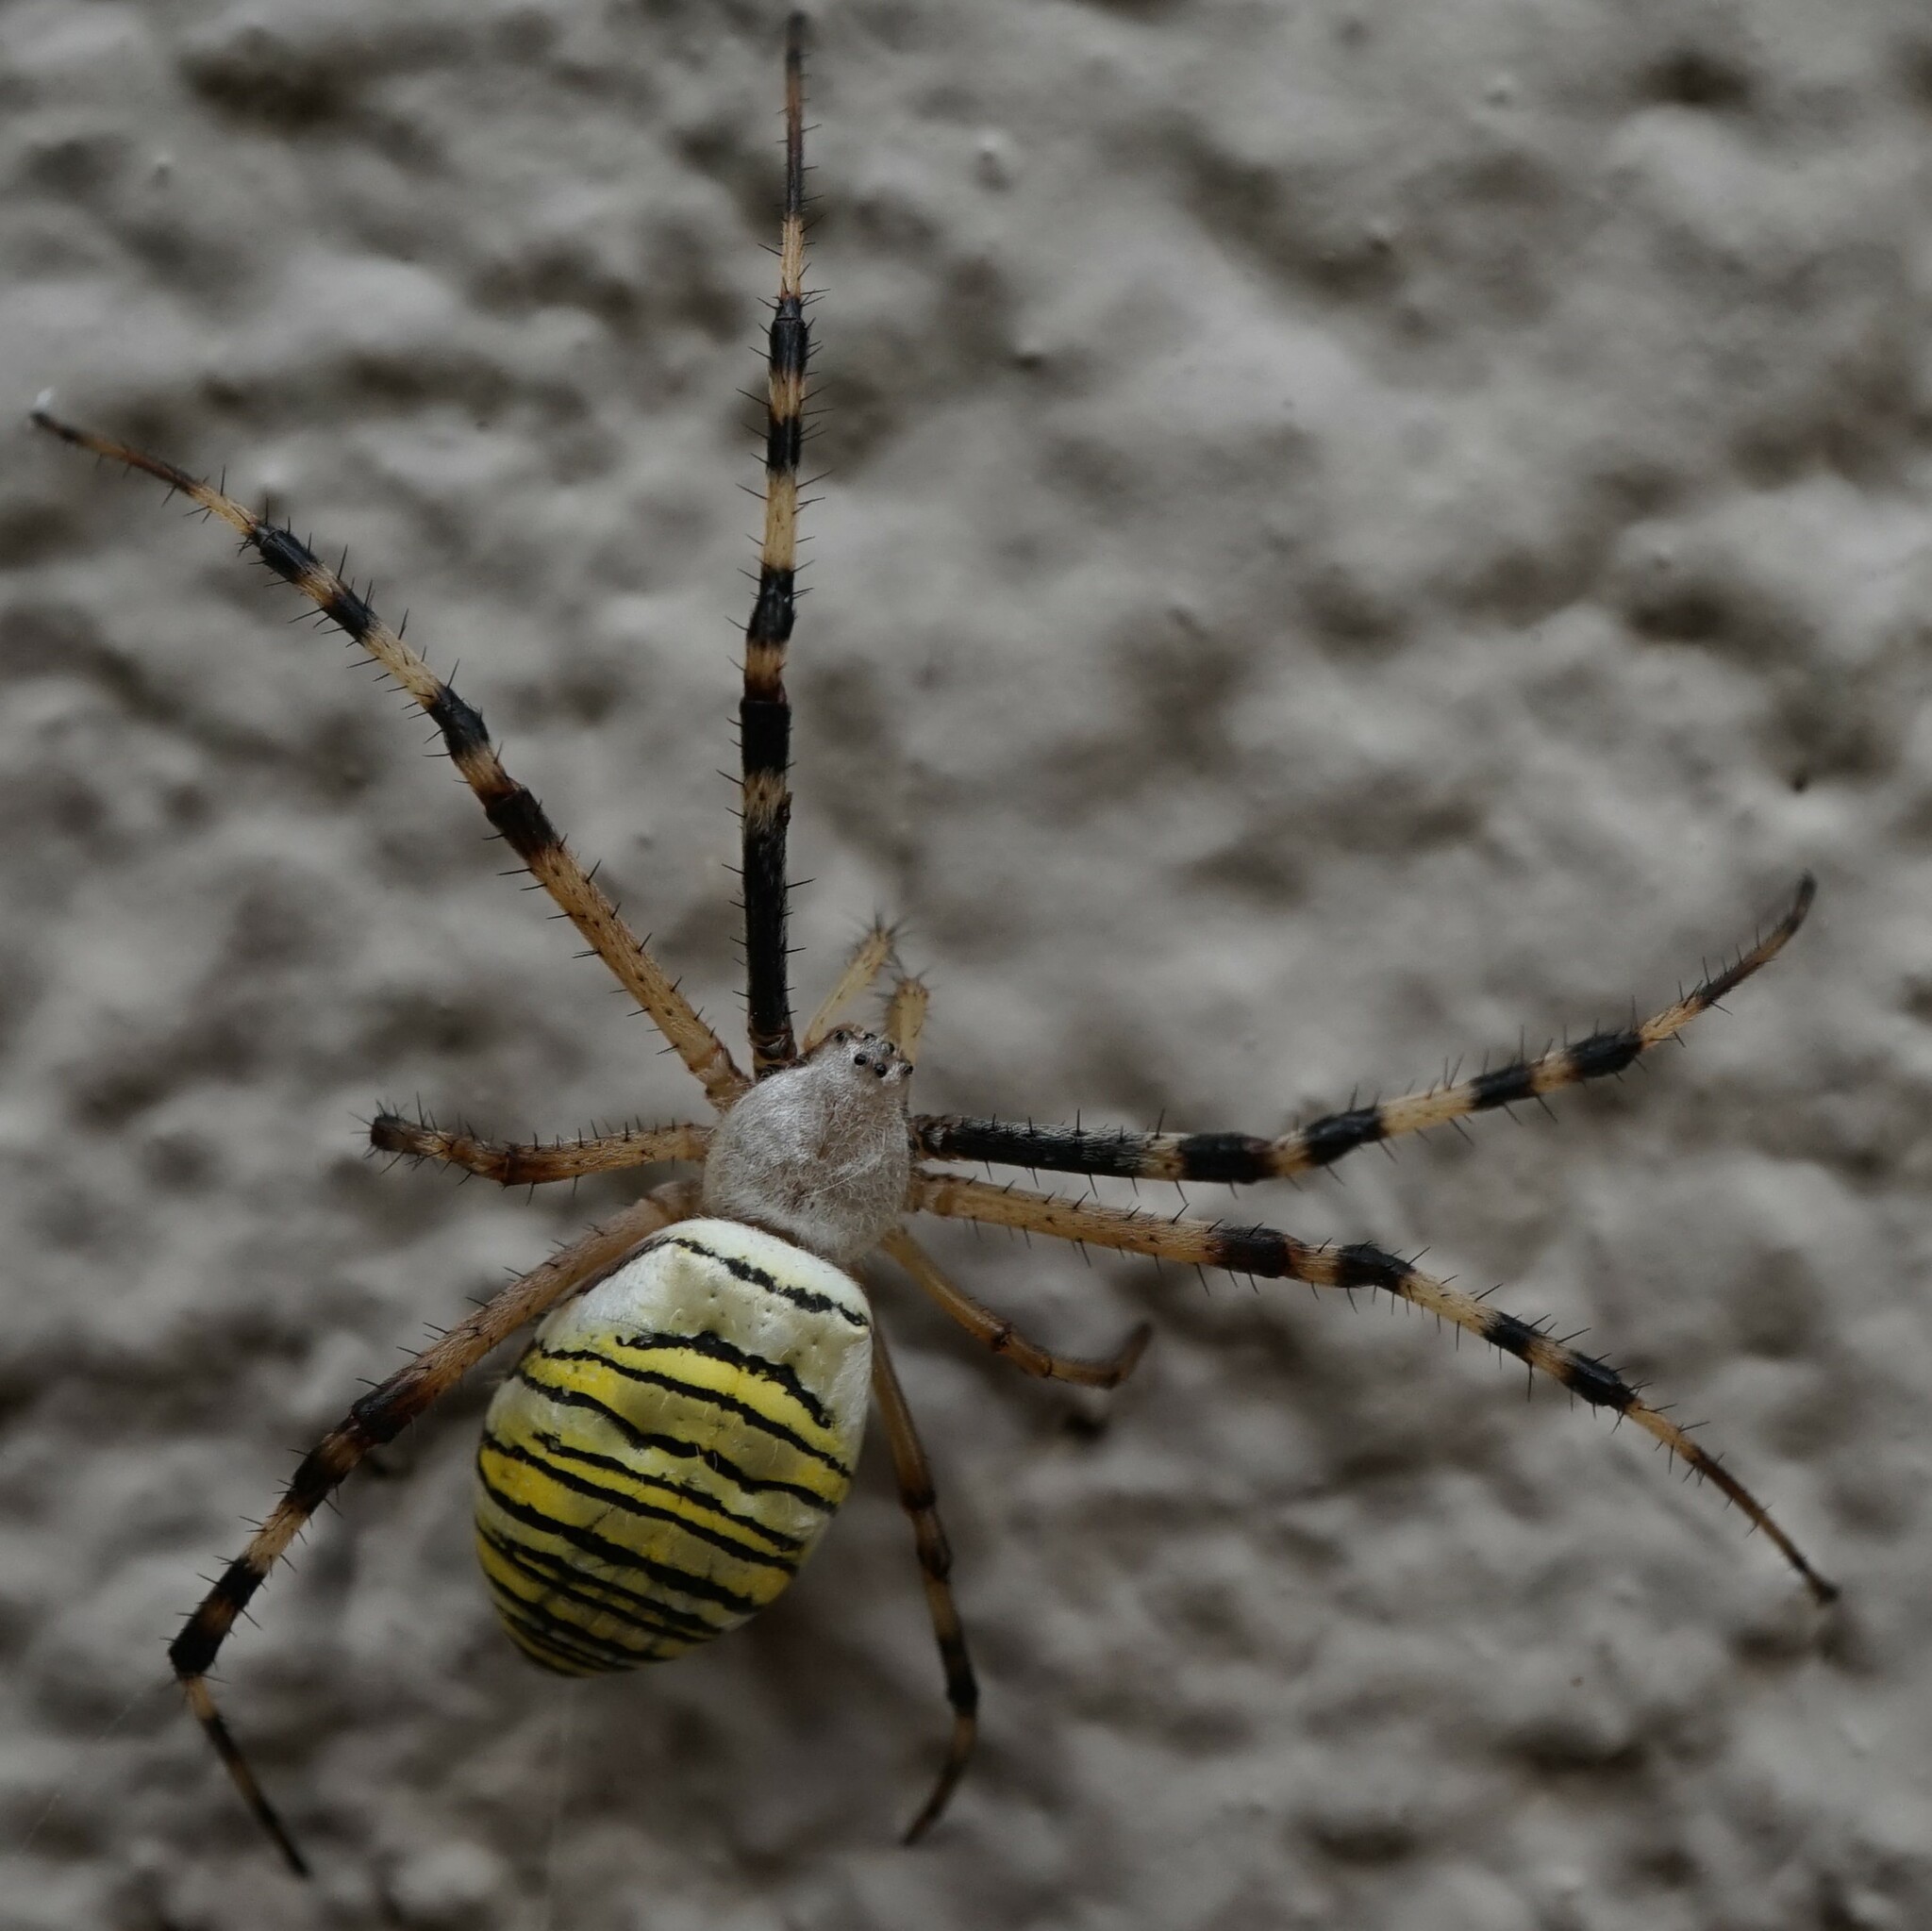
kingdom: Animalia
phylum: Arthropoda
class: Arachnida
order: Araneae
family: Araneidae
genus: Argiope
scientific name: Argiope bruennichi
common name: Wasp spider
